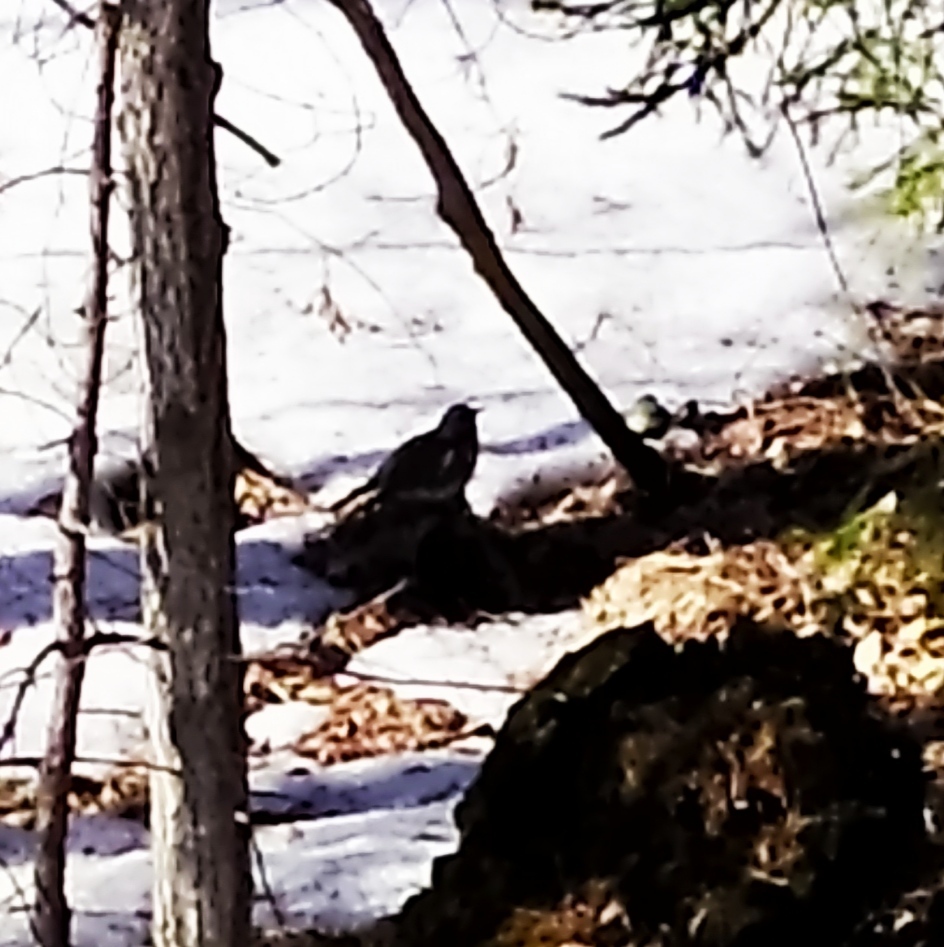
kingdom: Animalia
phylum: Chordata
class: Aves
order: Passeriformes
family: Turdidae
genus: Turdus
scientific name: Turdus pilaris
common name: Fieldfare
